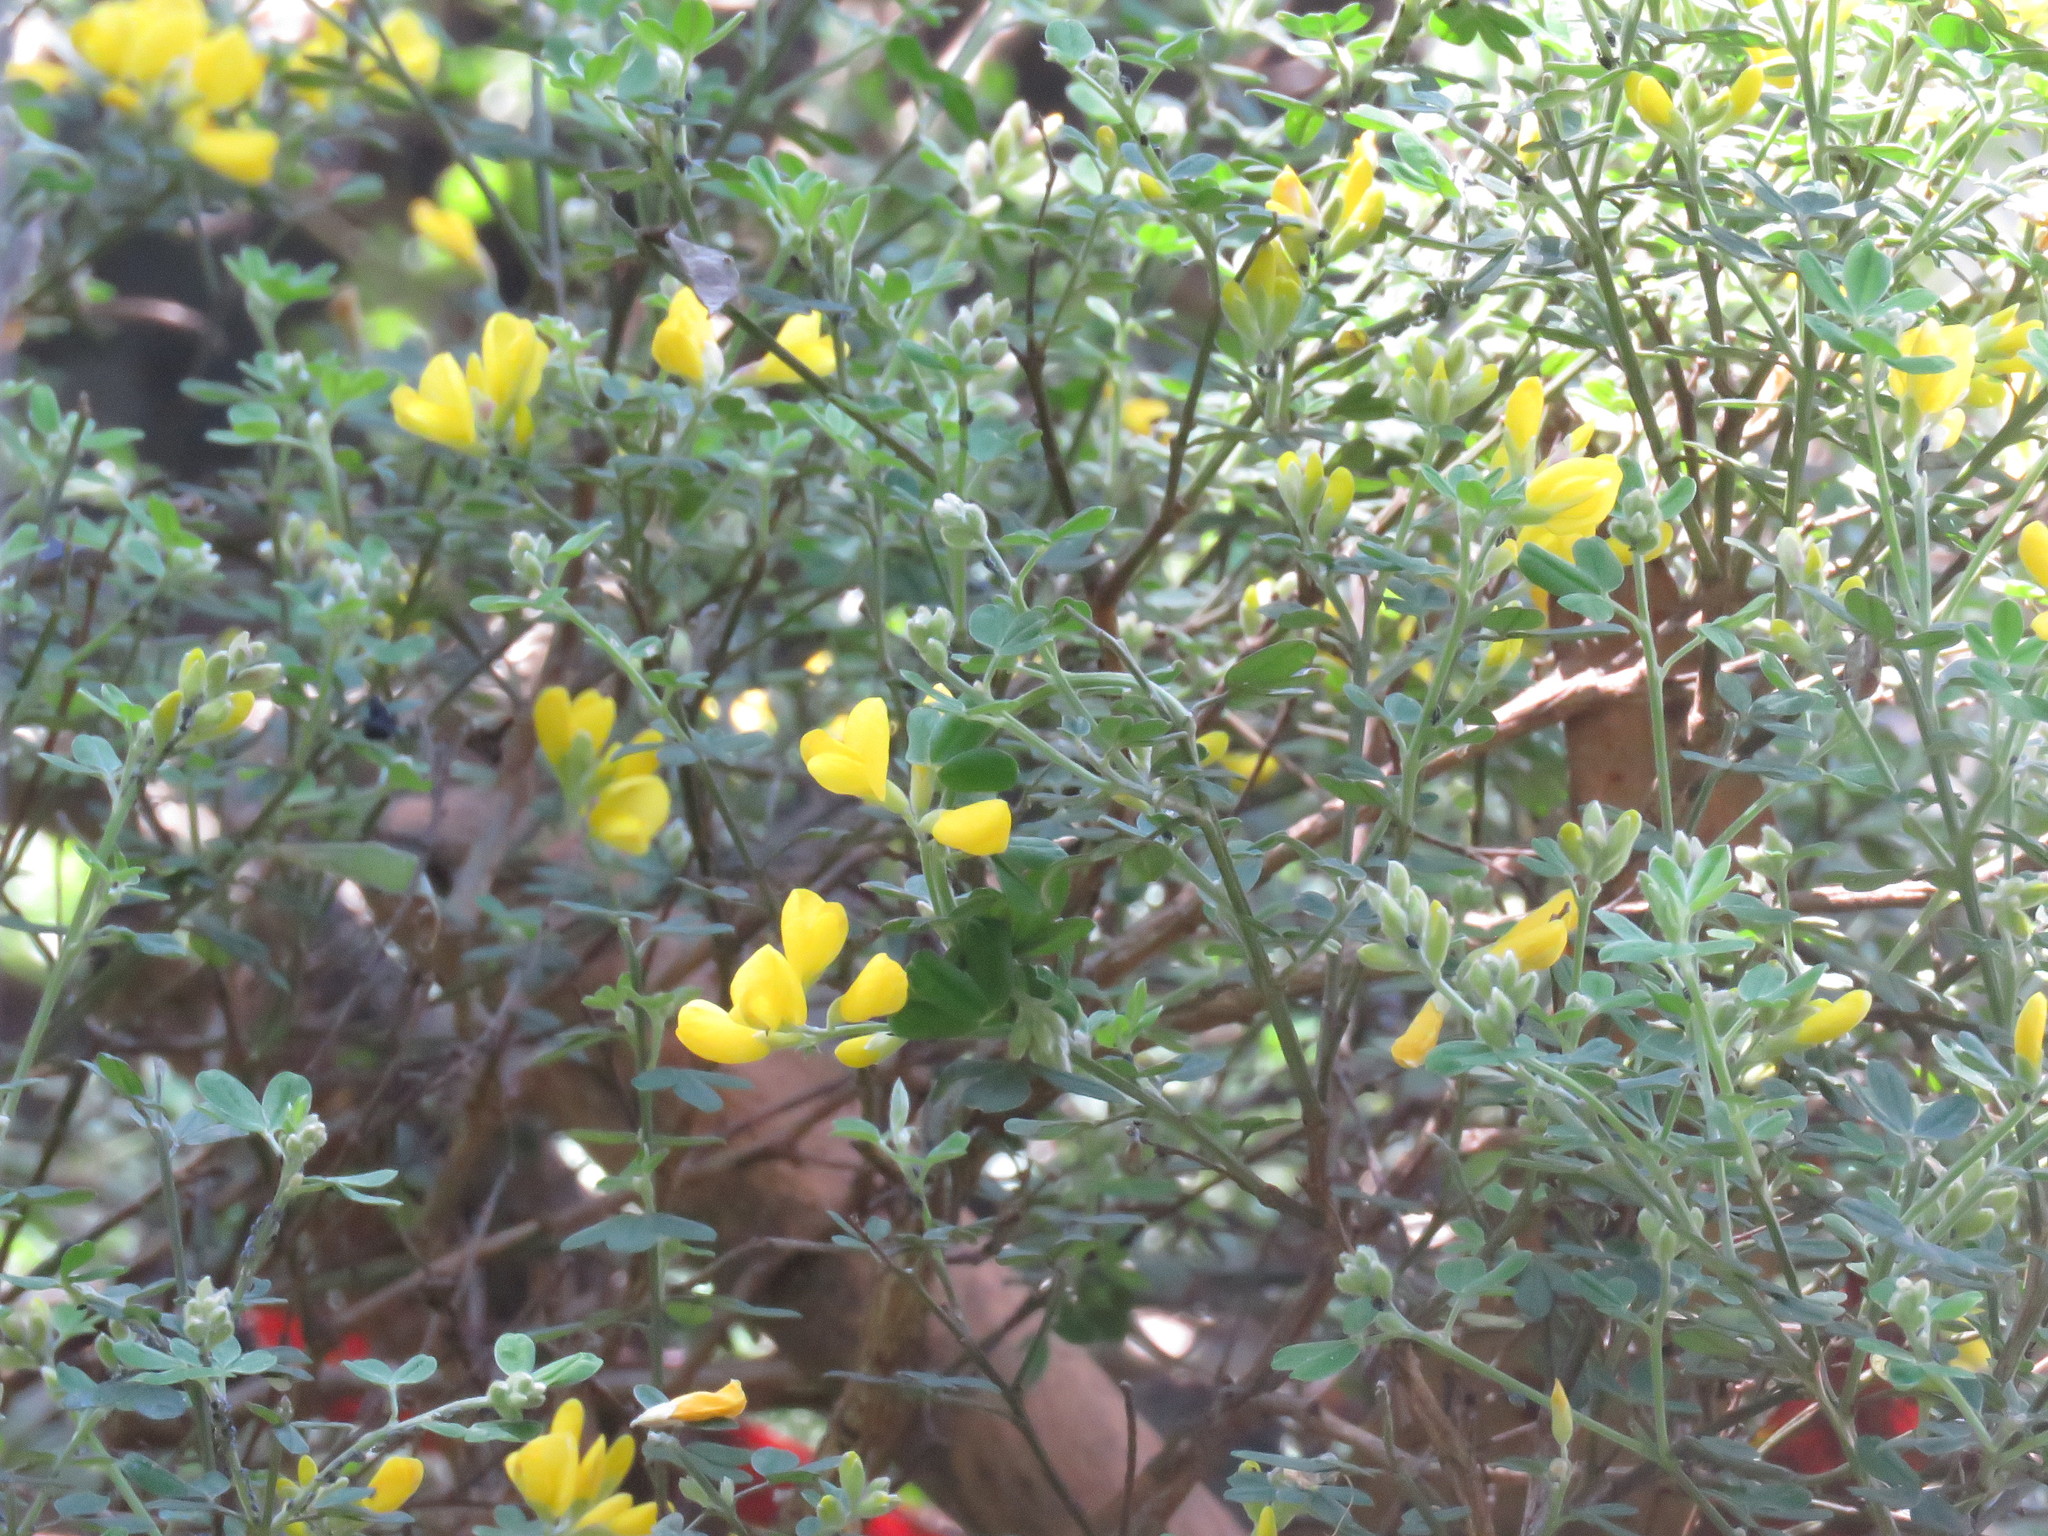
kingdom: Plantae
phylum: Tracheophyta
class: Magnoliopsida
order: Fabales
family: Fabaceae
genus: Genista
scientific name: Genista monspessulana
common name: Montpellier broom
